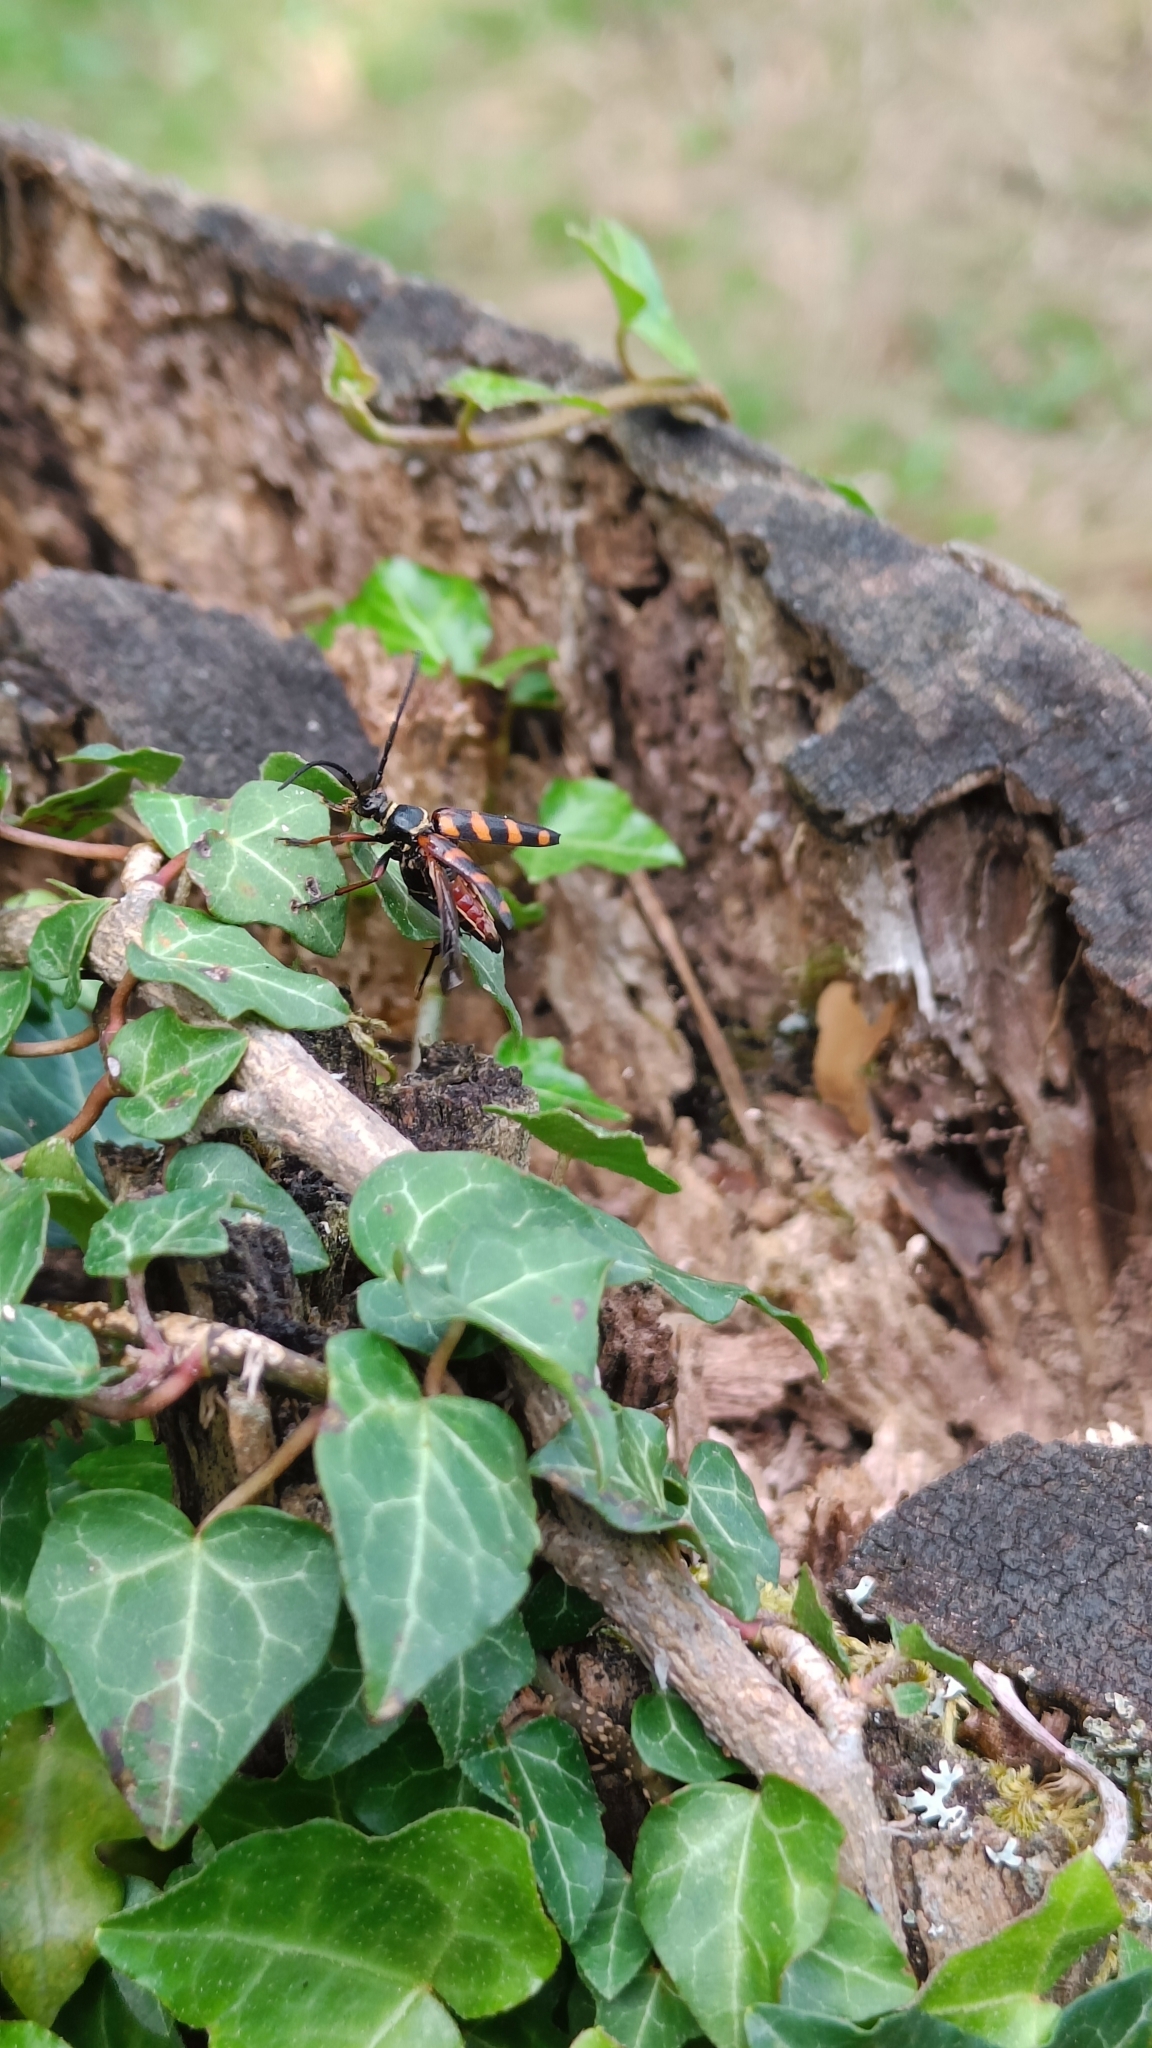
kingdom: Animalia
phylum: Arthropoda
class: Insecta
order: Coleoptera
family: Cerambycidae
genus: Leptura
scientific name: Leptura aurulenta
